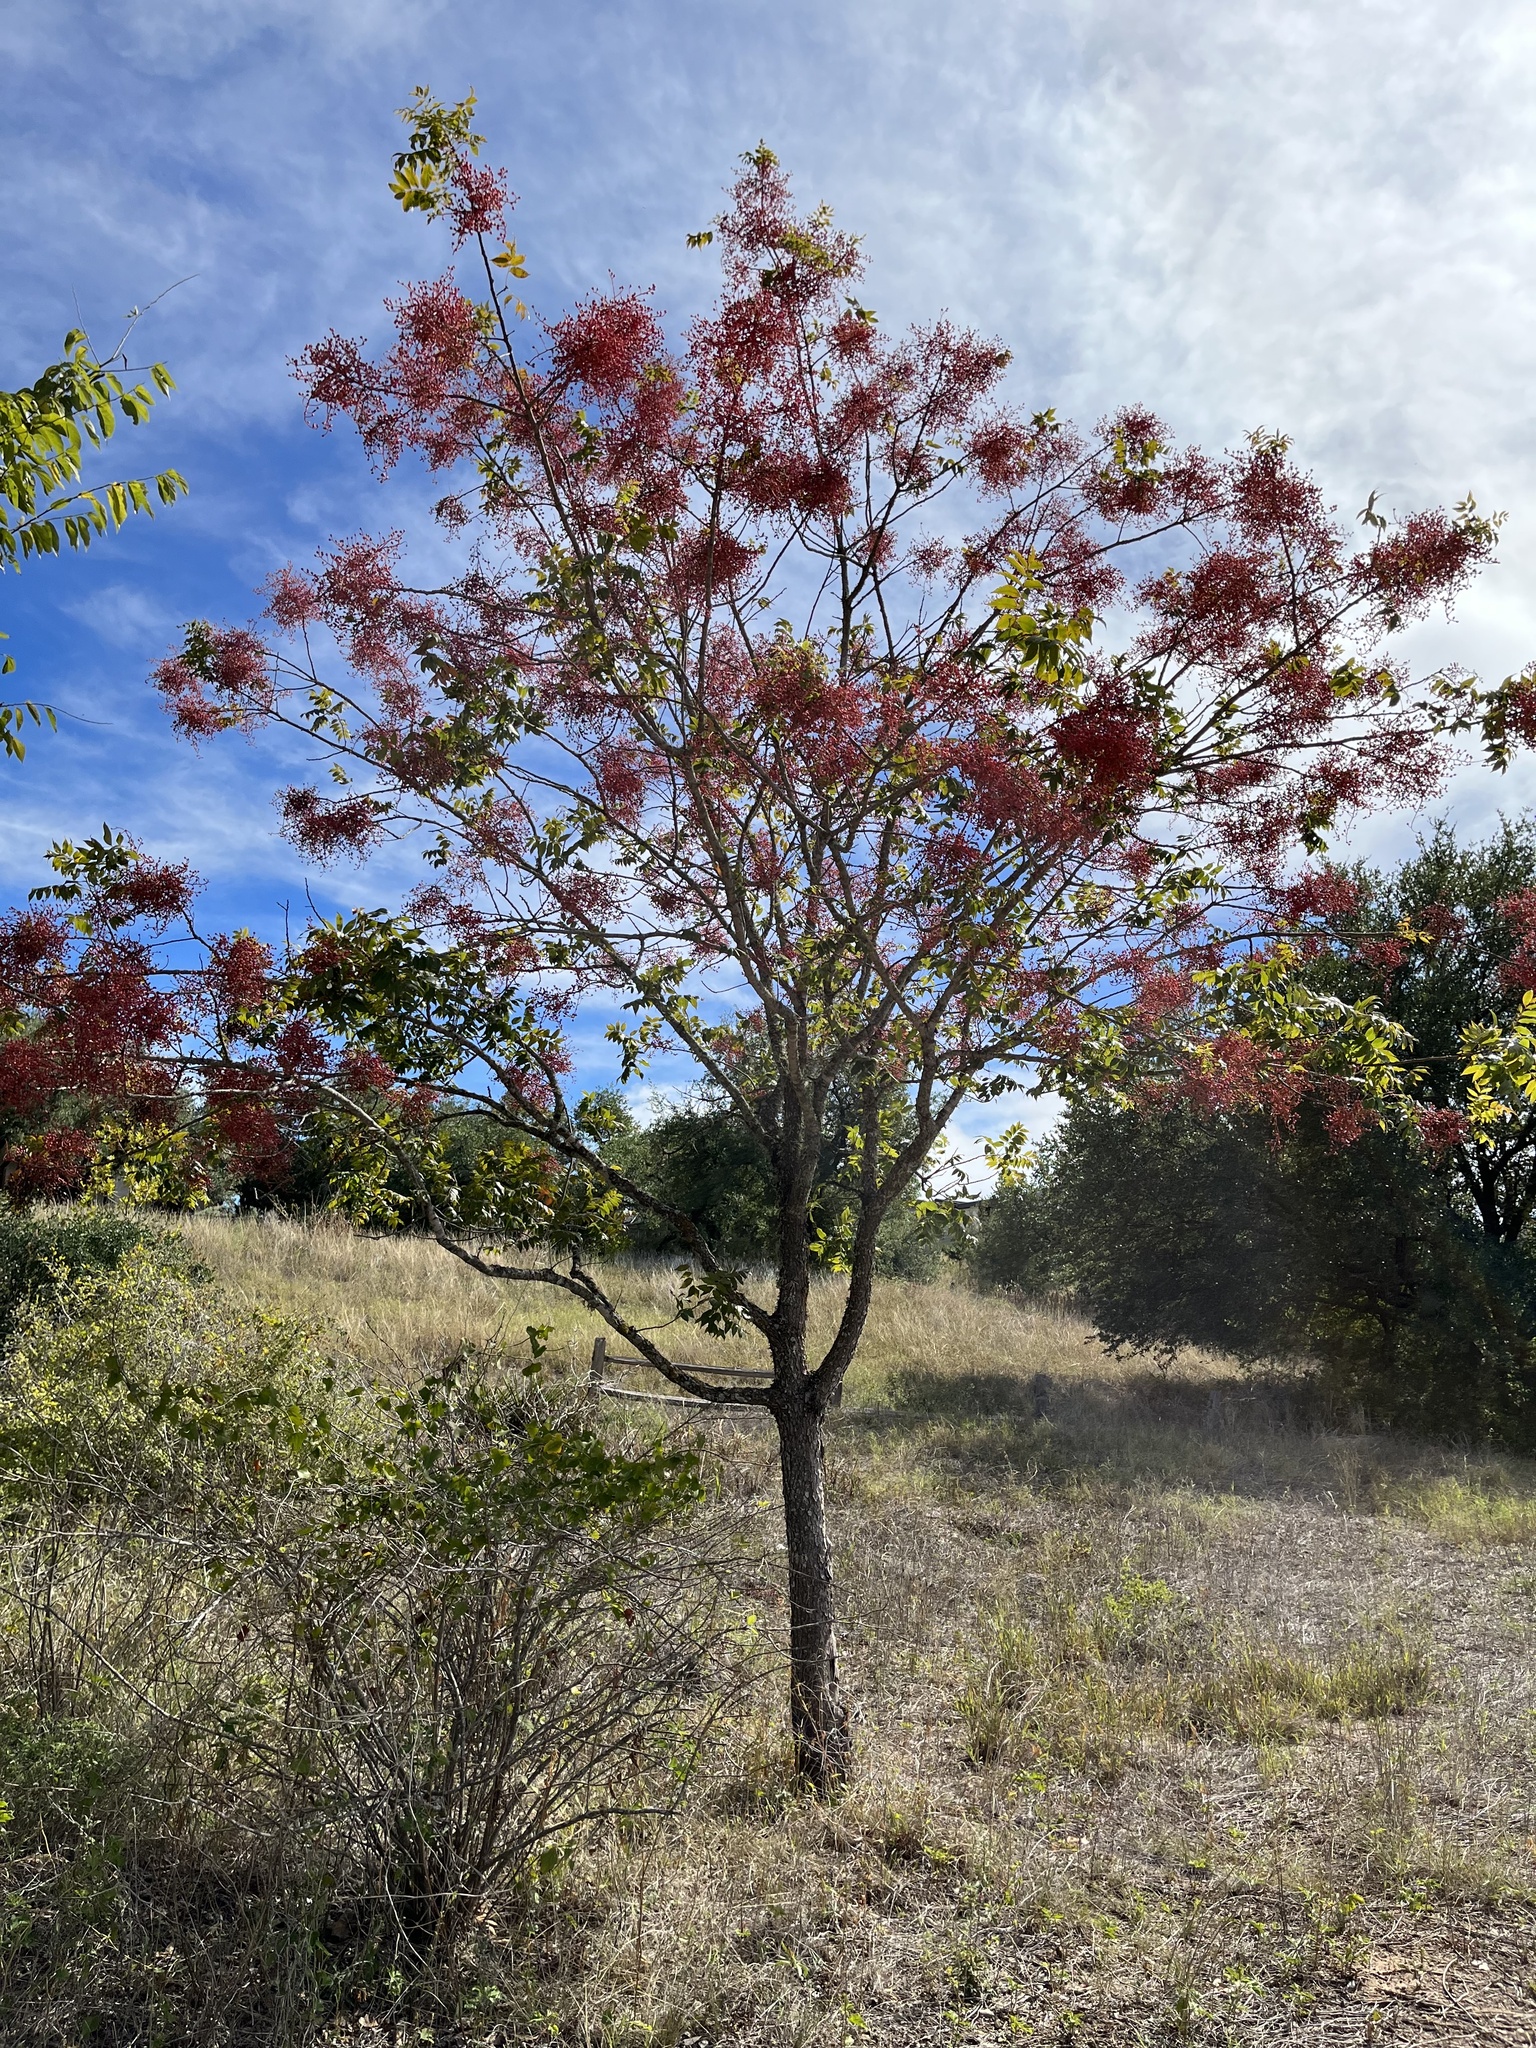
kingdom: Plantae
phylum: Tracheophyta
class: Magnoliopsida
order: Sapindales
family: Anacardiaceae
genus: Pistacia
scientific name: Pistacia chinensis
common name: Chinese pistache
